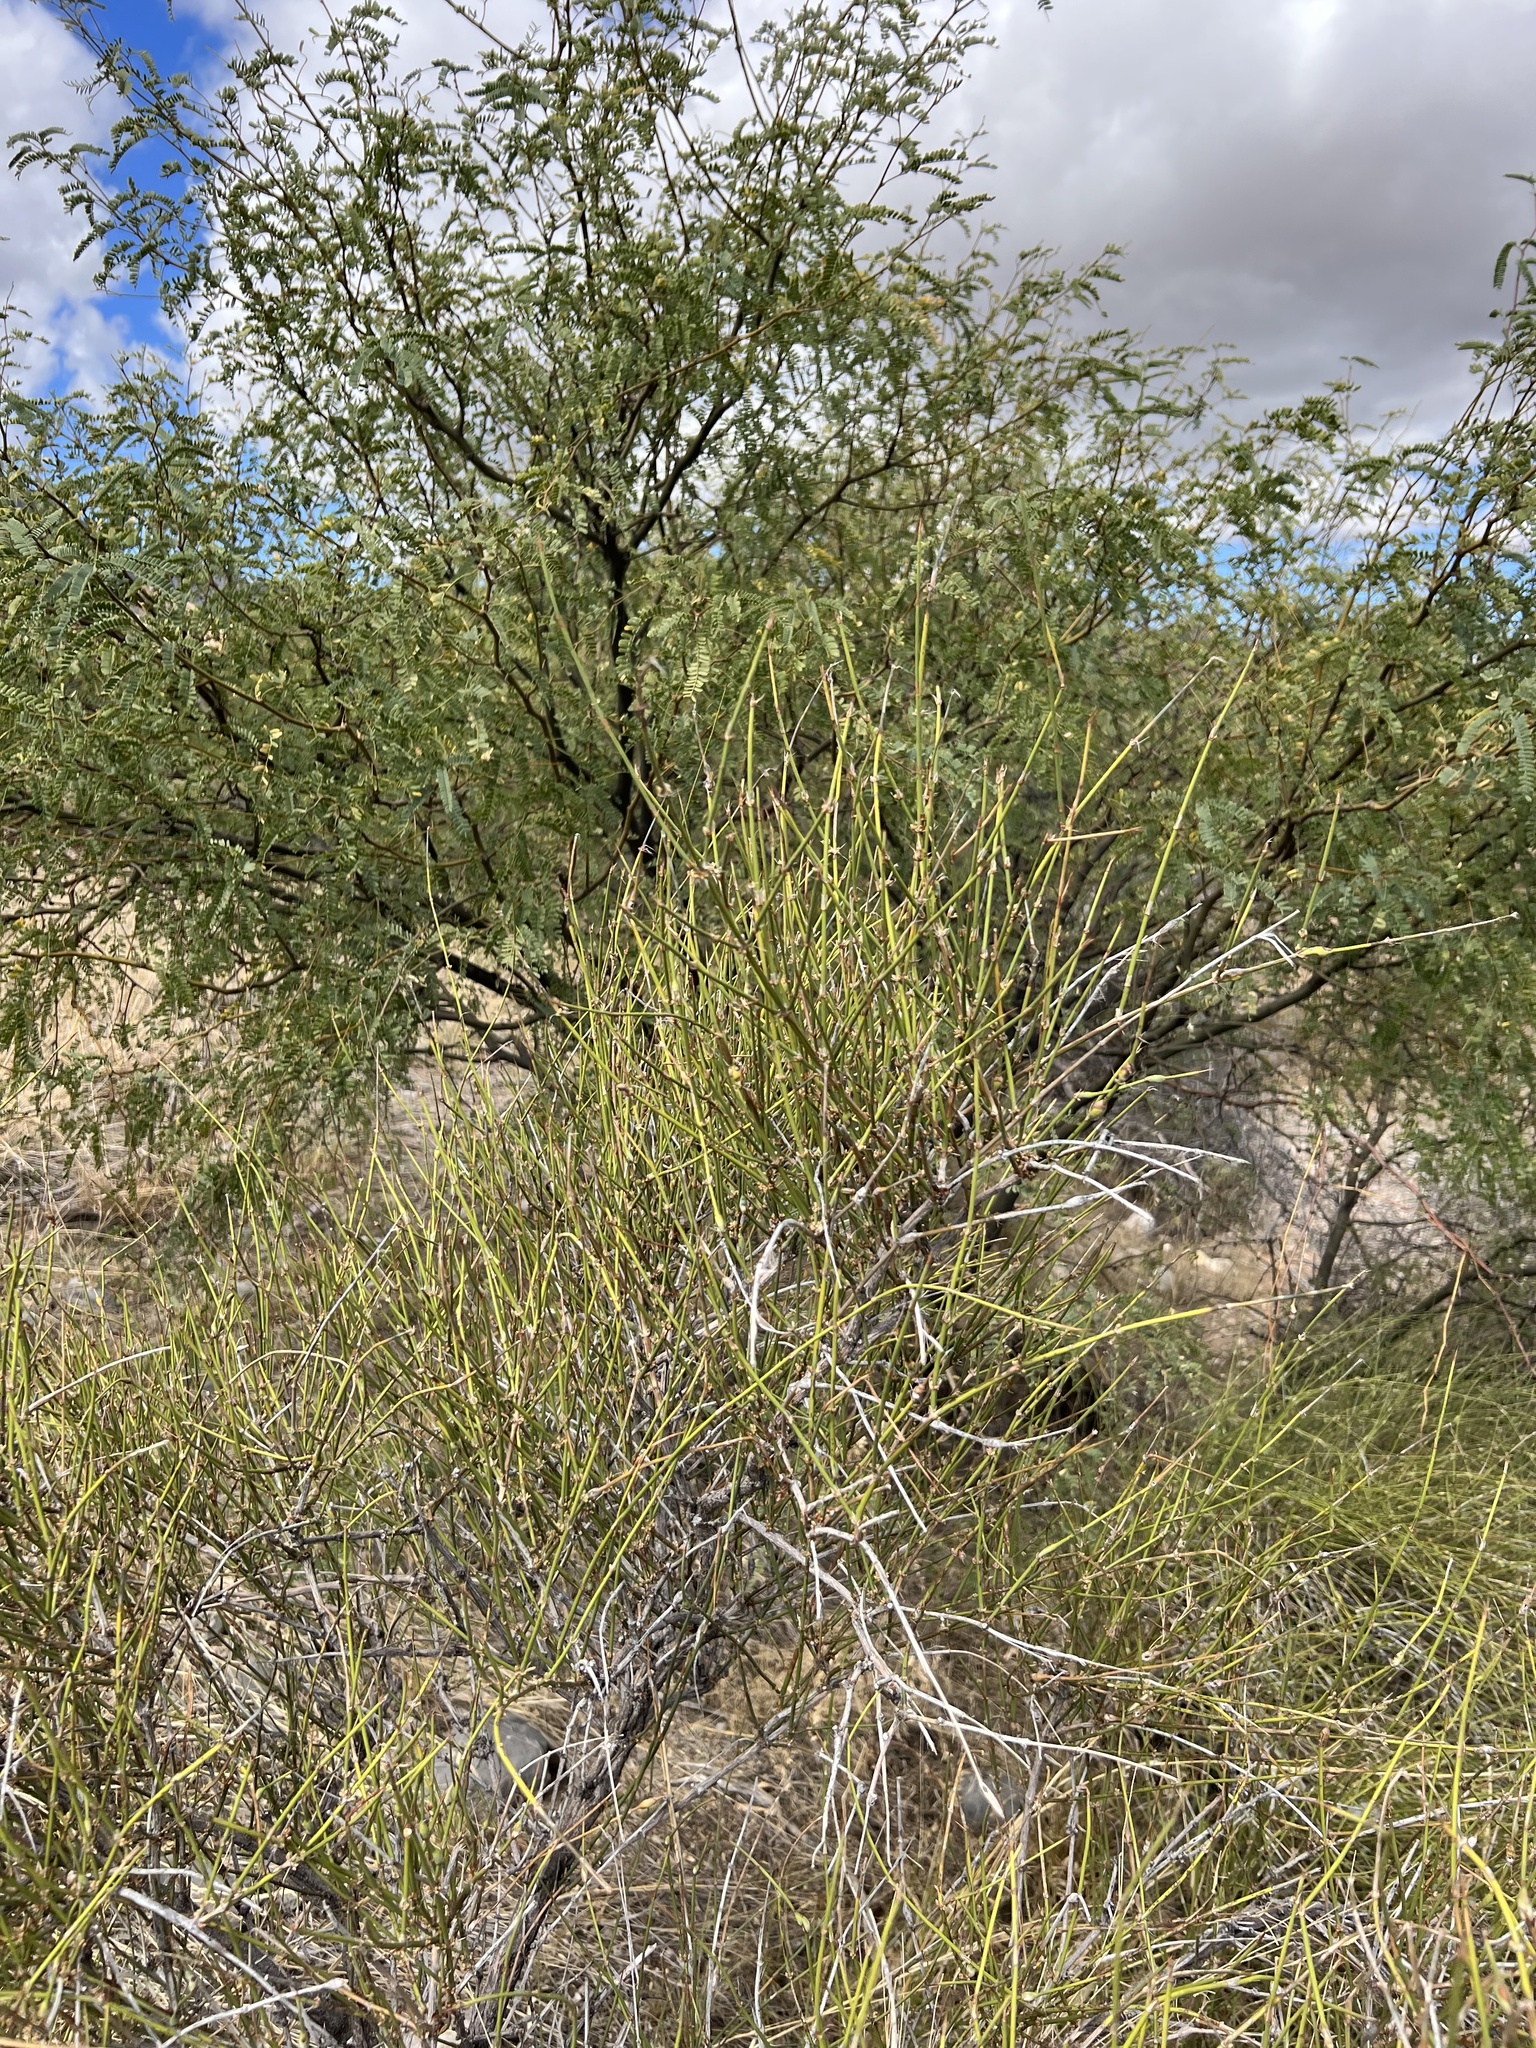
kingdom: Plantae
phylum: Tracheophyta
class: Gnetopsida
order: Ephedrales
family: Ephedraceae
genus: Ephedra
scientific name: Ephedra trifurca
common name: Mexican-tea
